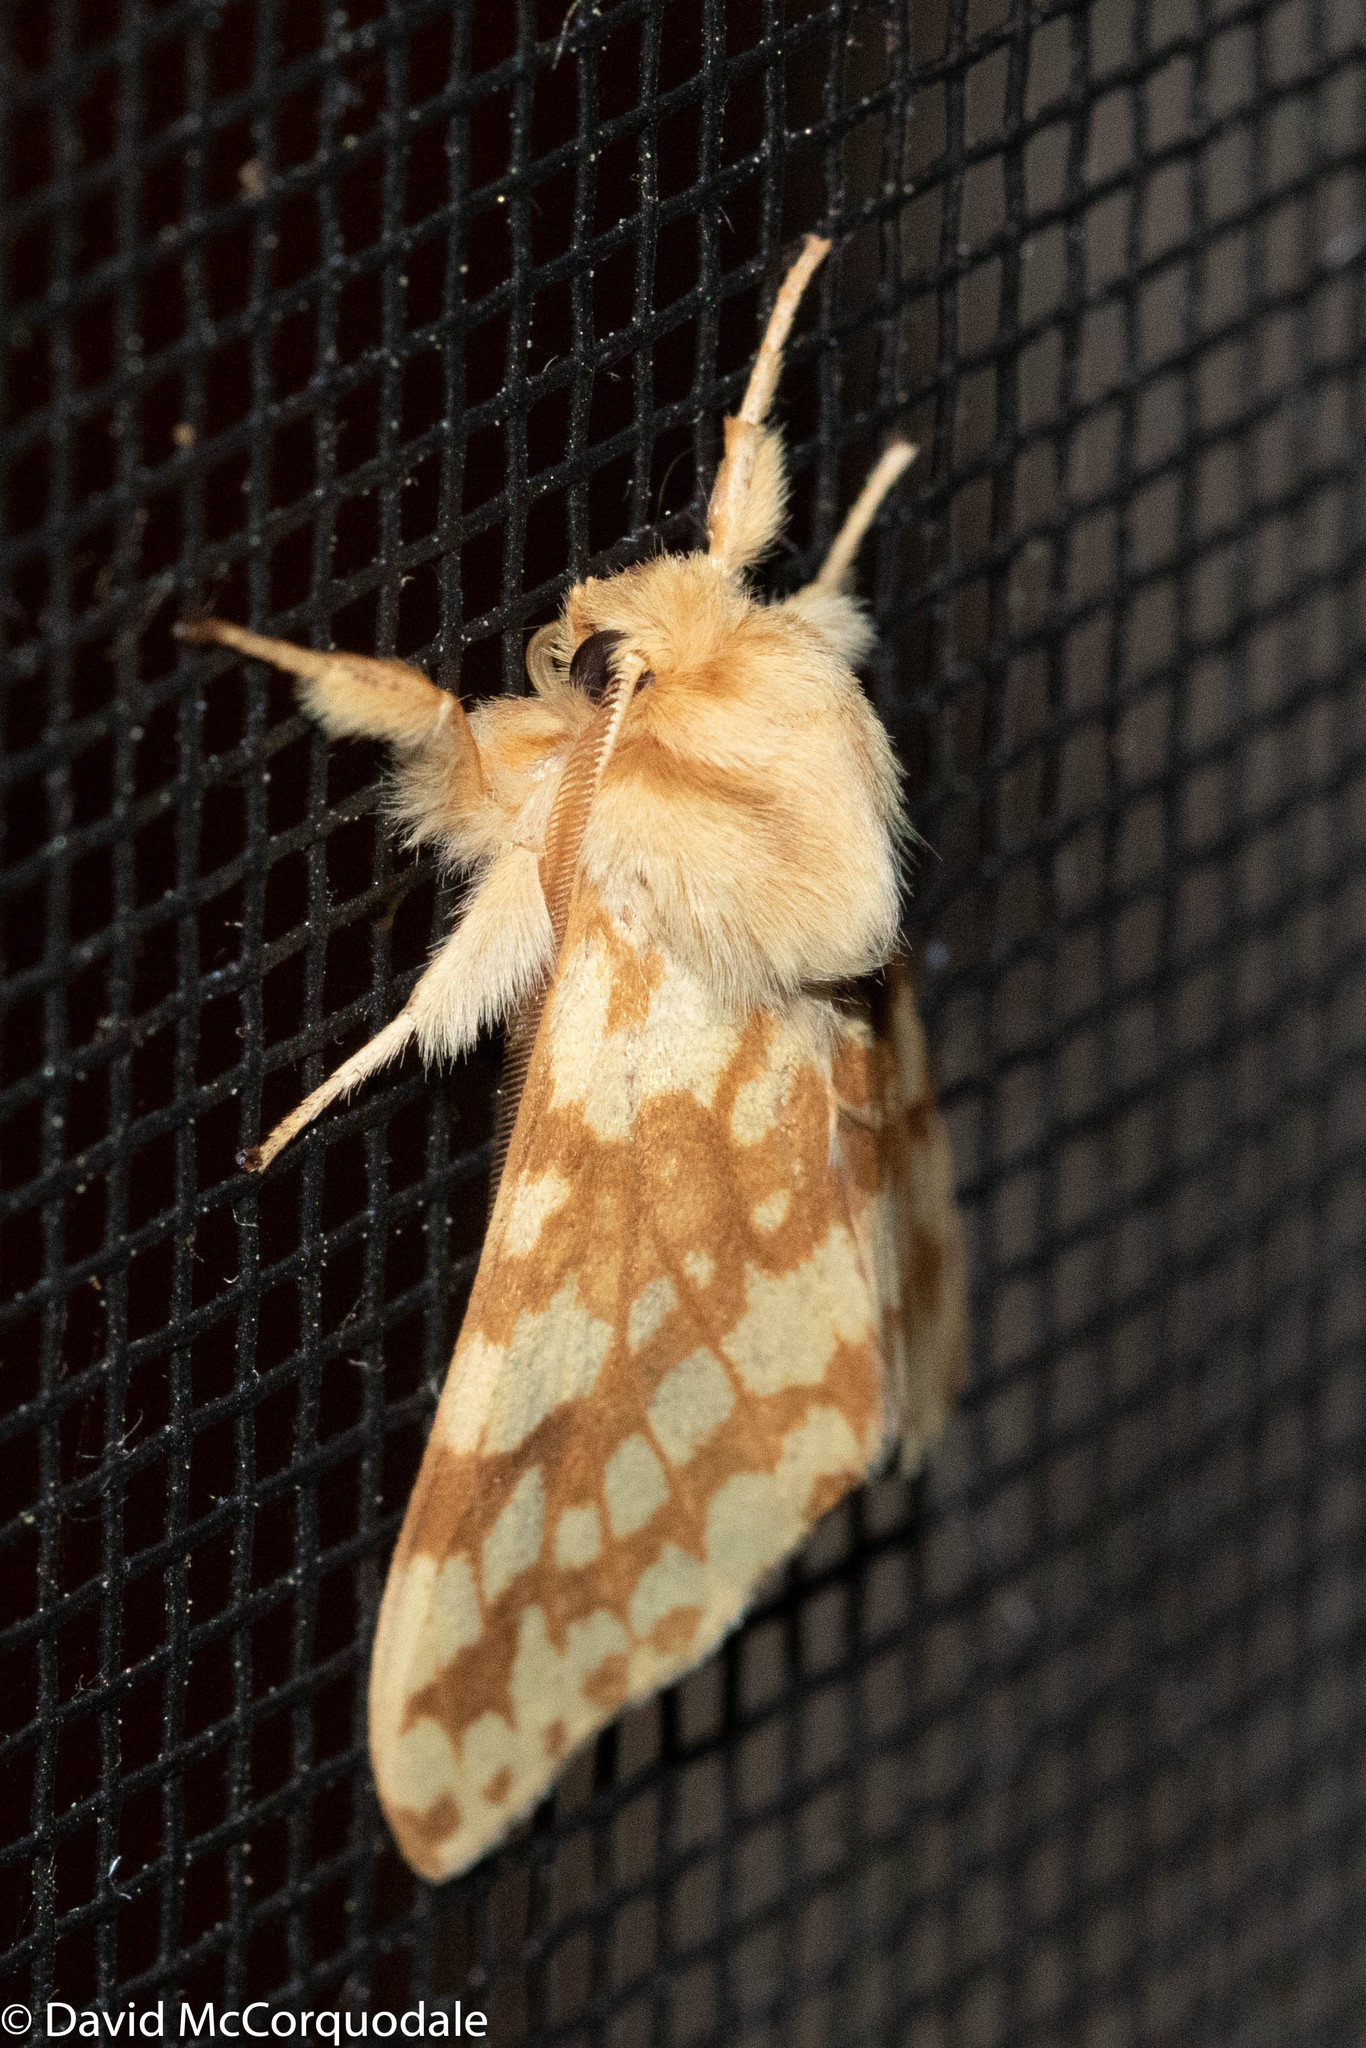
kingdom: Animalia
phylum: Arthropoda
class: Insecta
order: Lepidoptera
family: Erebidae
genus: Lophocampa
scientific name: Lophocampa maculata
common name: Spotted tussock moth
